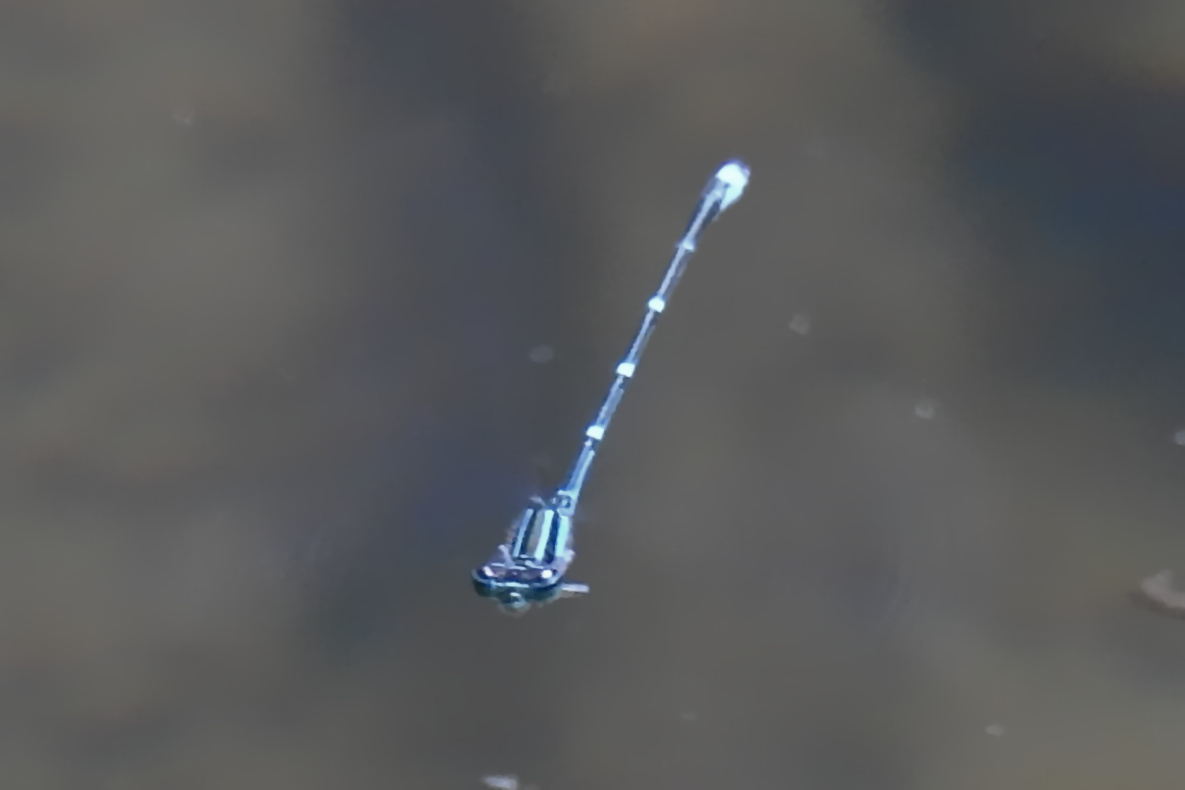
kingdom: Animalia
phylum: Arthropoda
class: Insecta
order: Odonata
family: Coenagrionidae
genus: Enallagma
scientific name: Enallagma exsulans
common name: Stream bluet
